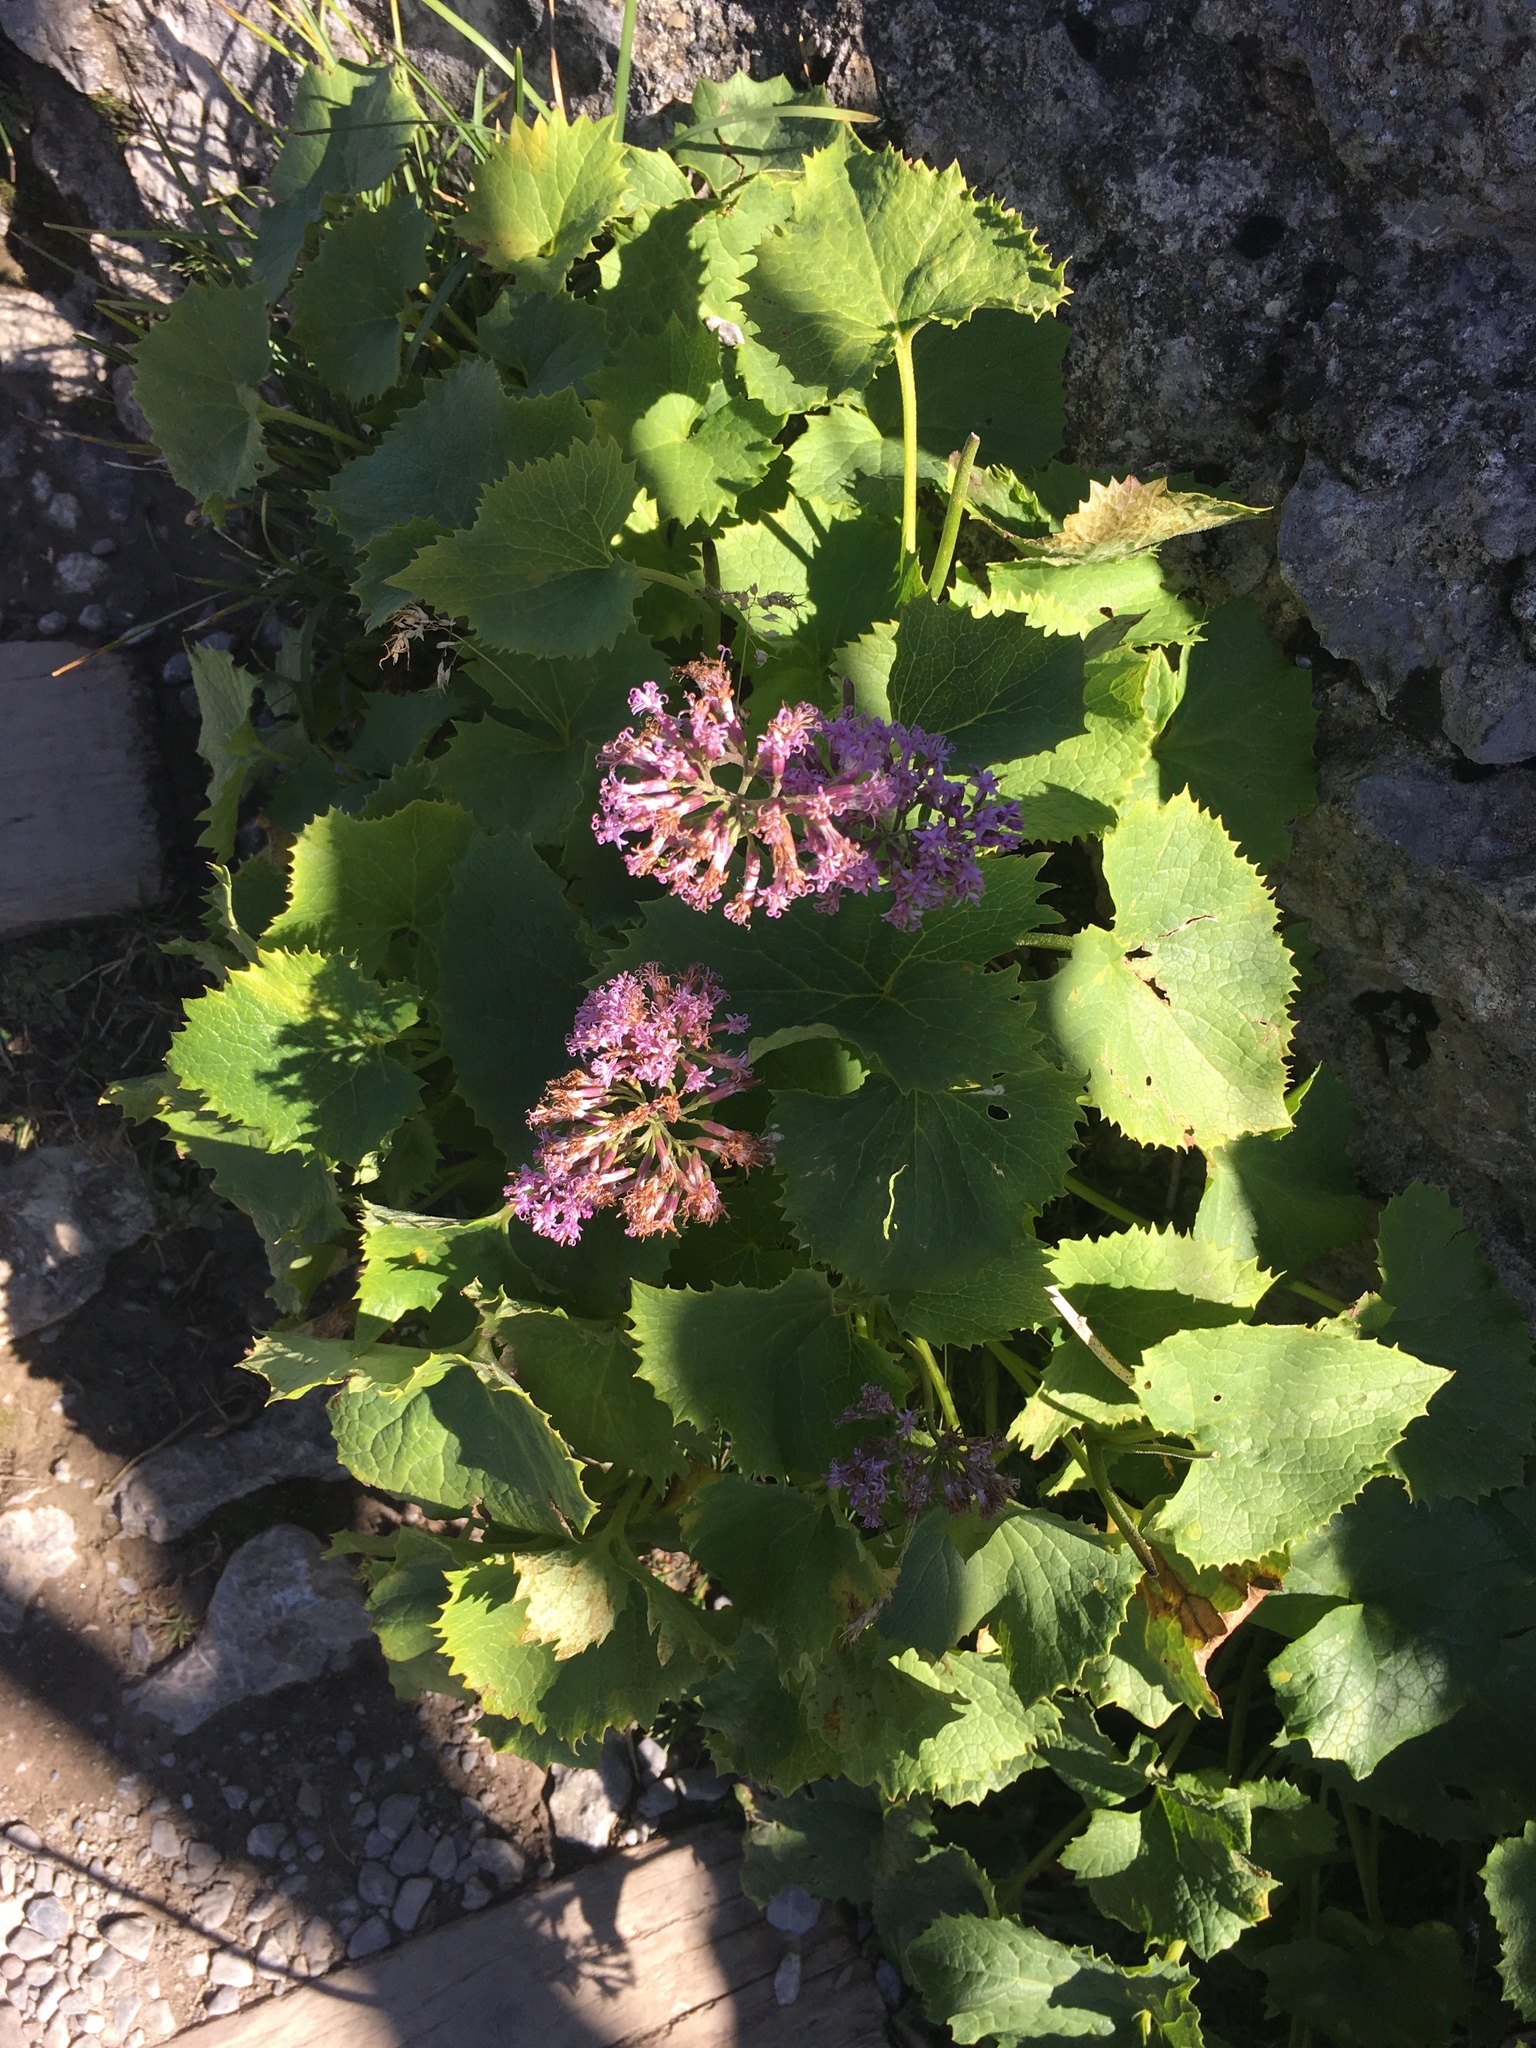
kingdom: Plantae
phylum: Tracheophyta
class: Magnoliopsida
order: Asterales
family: Asteraceae
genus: Adenostyles
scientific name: Adenostyles alliariae
